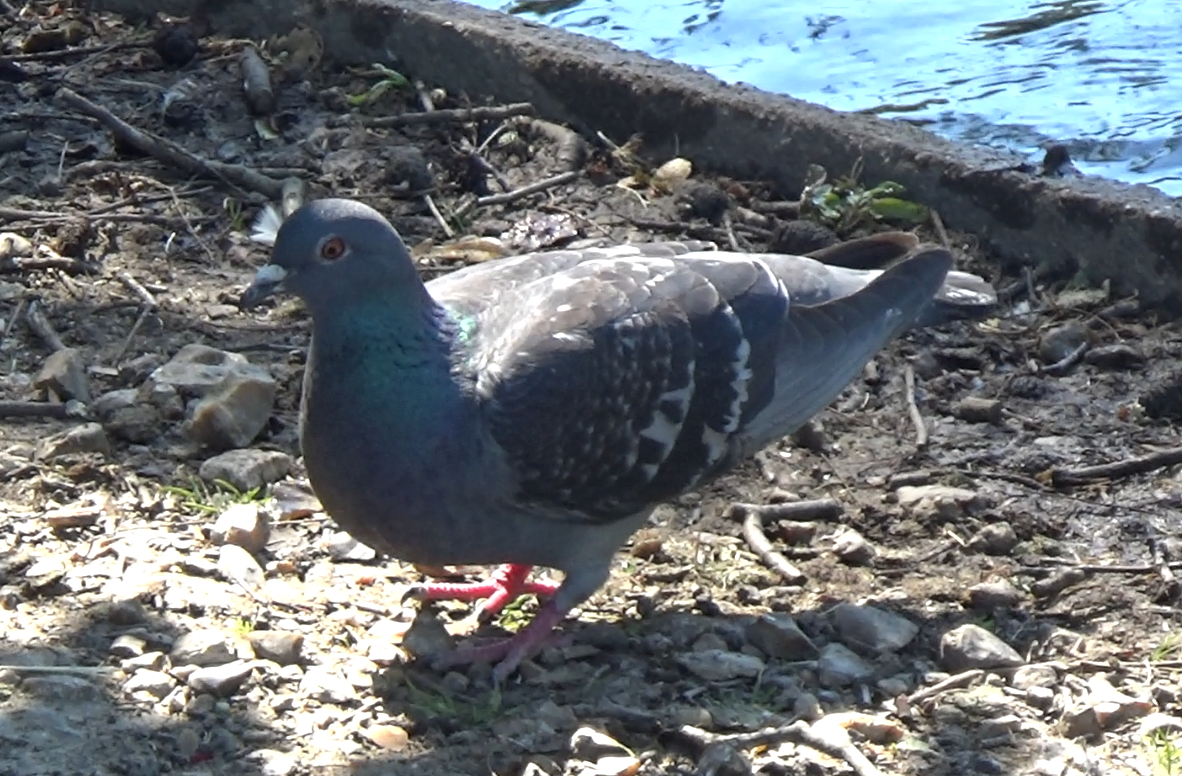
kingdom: Animalia
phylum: Chordata
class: Aves
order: Columbiformes
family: Columbidae
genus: Columba
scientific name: Columba livia
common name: Rock pigeon
